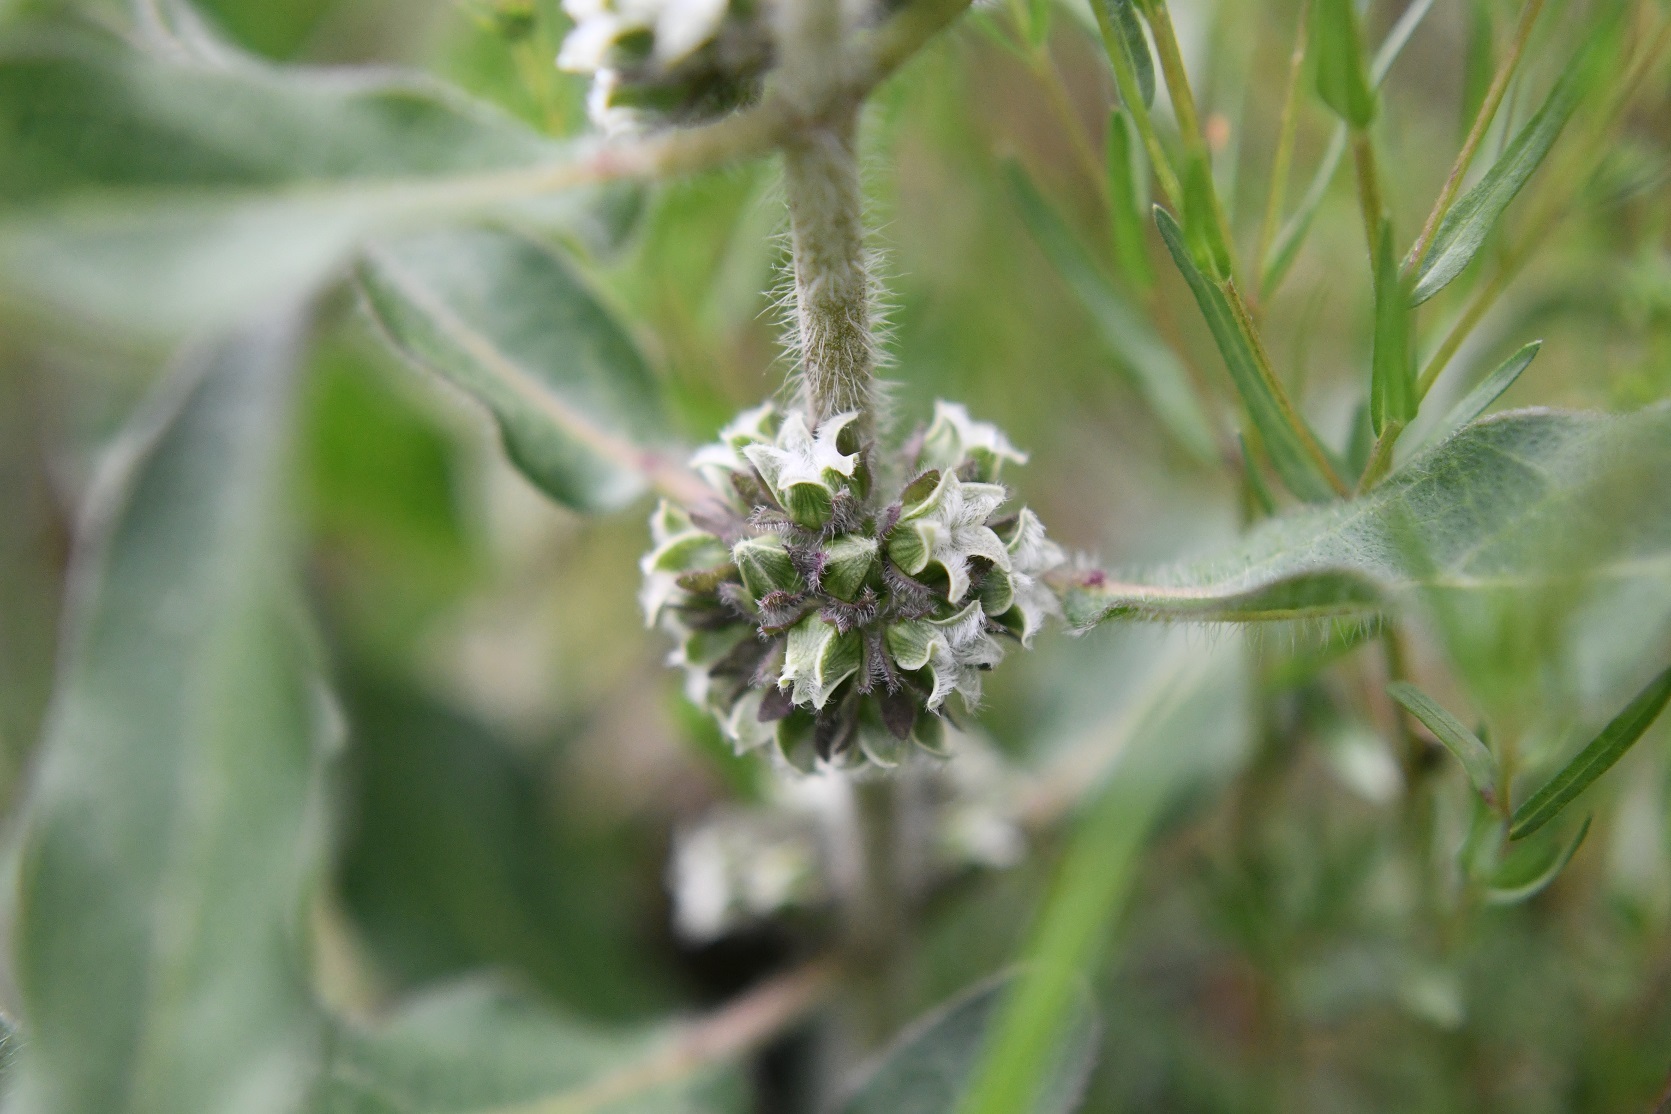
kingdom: Plantae
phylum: Tracheophyta
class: Magnoliopsida
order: Gentianales
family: Apocynaceae
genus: Pherotrichis
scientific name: Pherotrichis villosa
